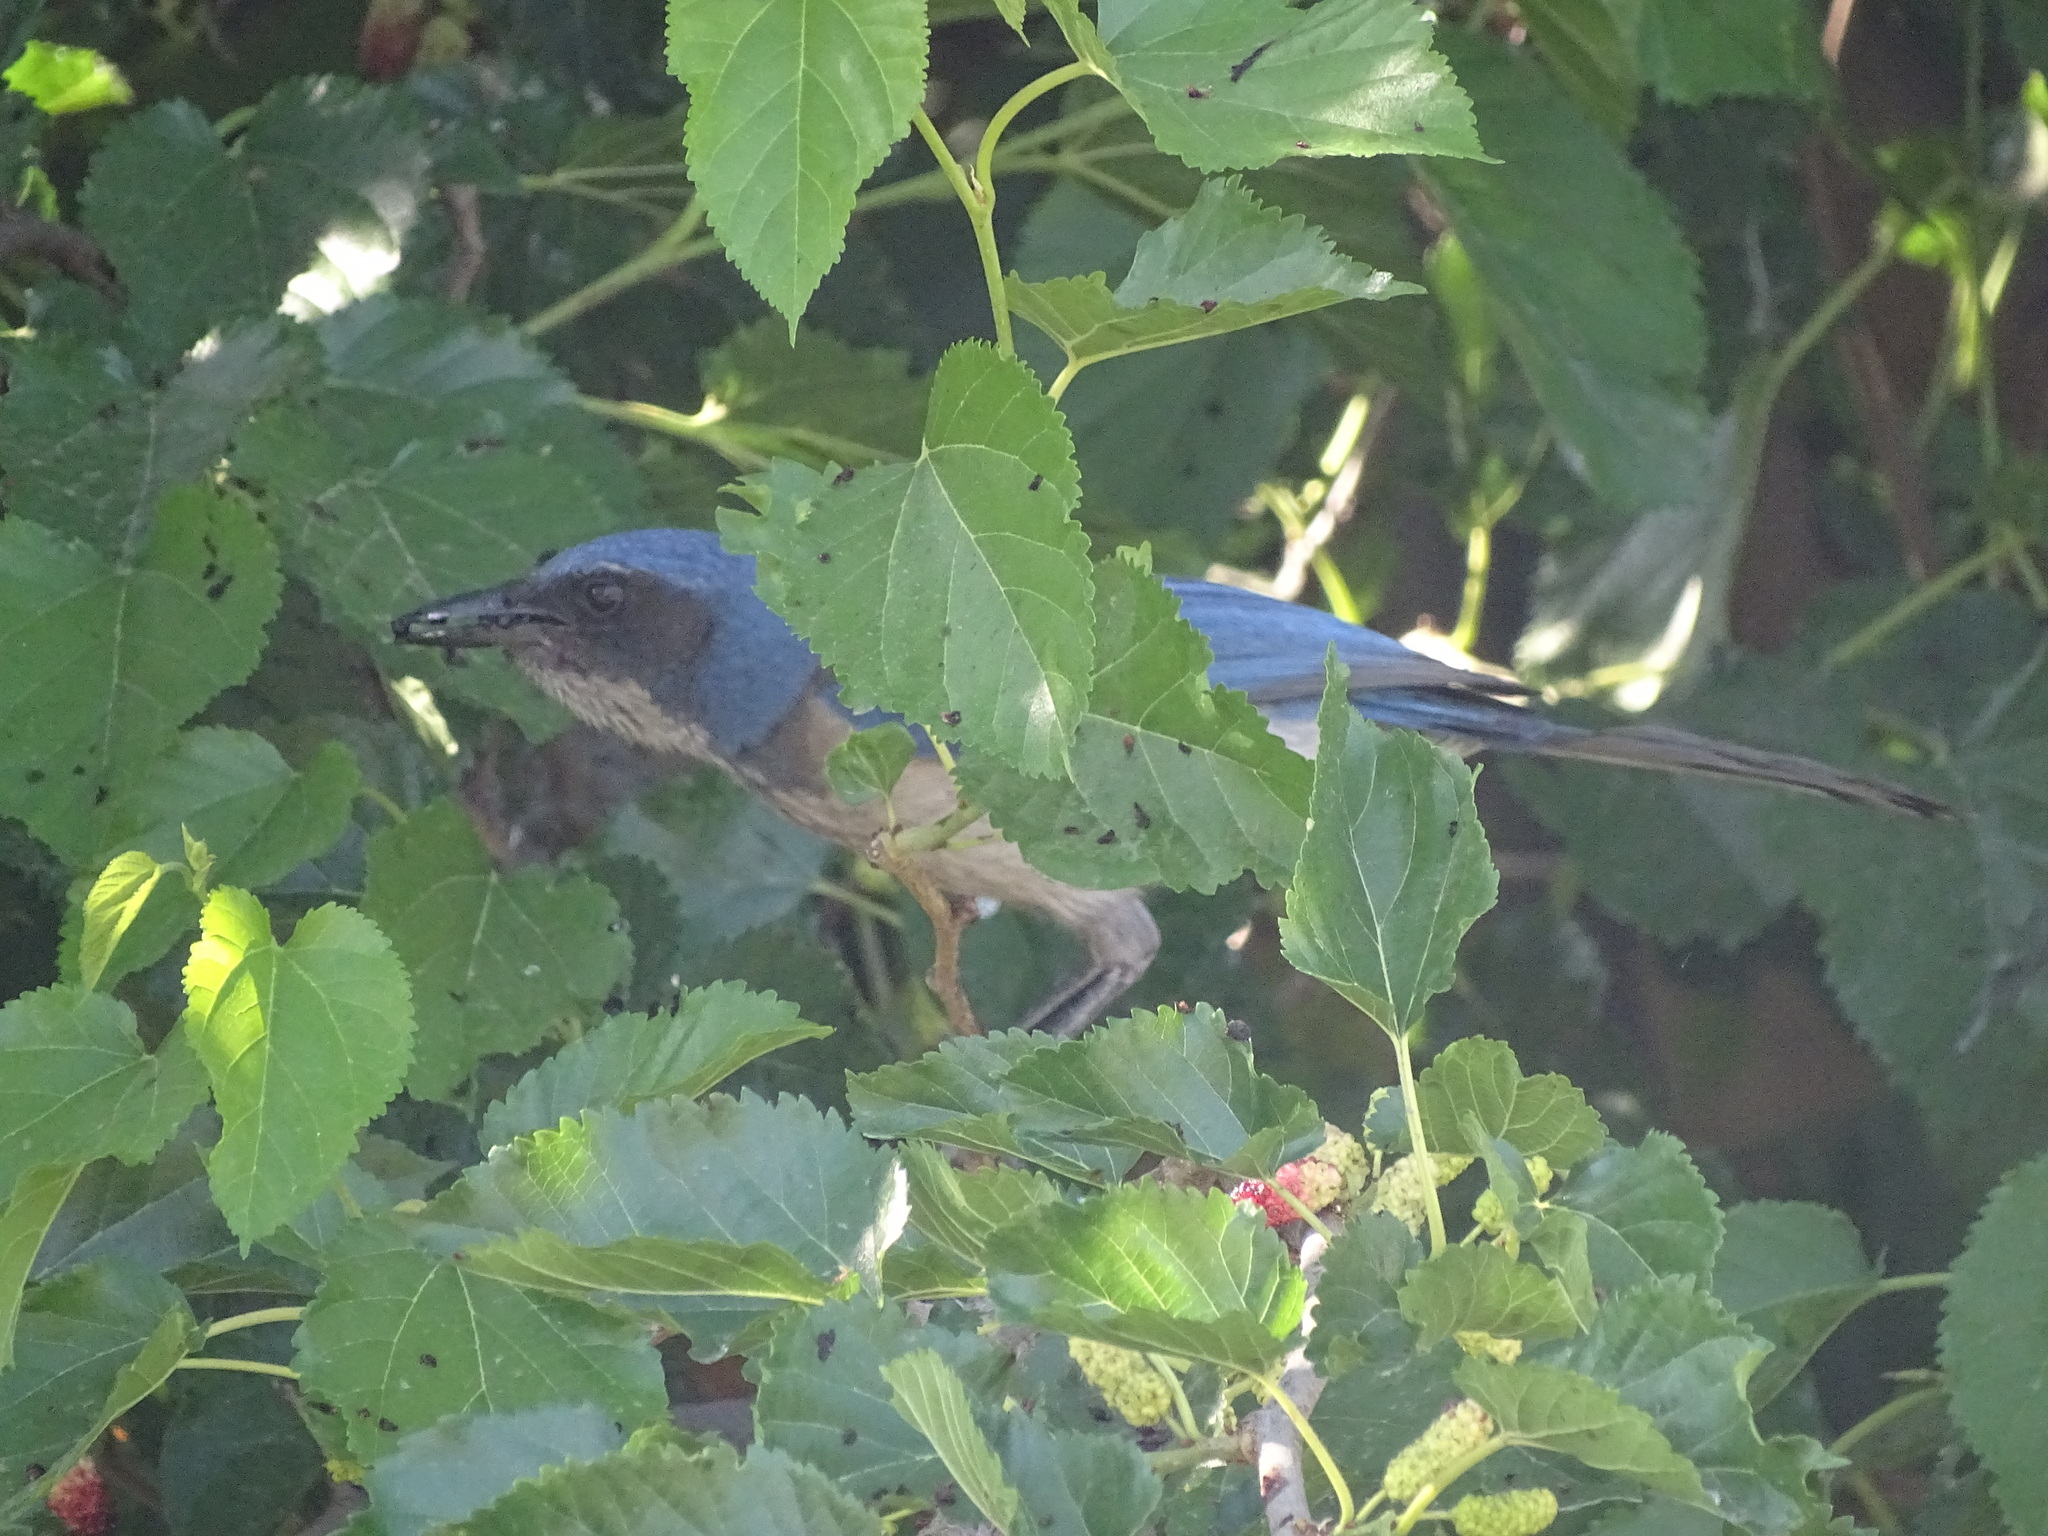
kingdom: Animalia
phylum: Chordata
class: Aves
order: Passeriformes
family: Corvidae
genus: Aphelocoma
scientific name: Aphelocoma woodhouseii
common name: Woodhouse's scrub-jay
